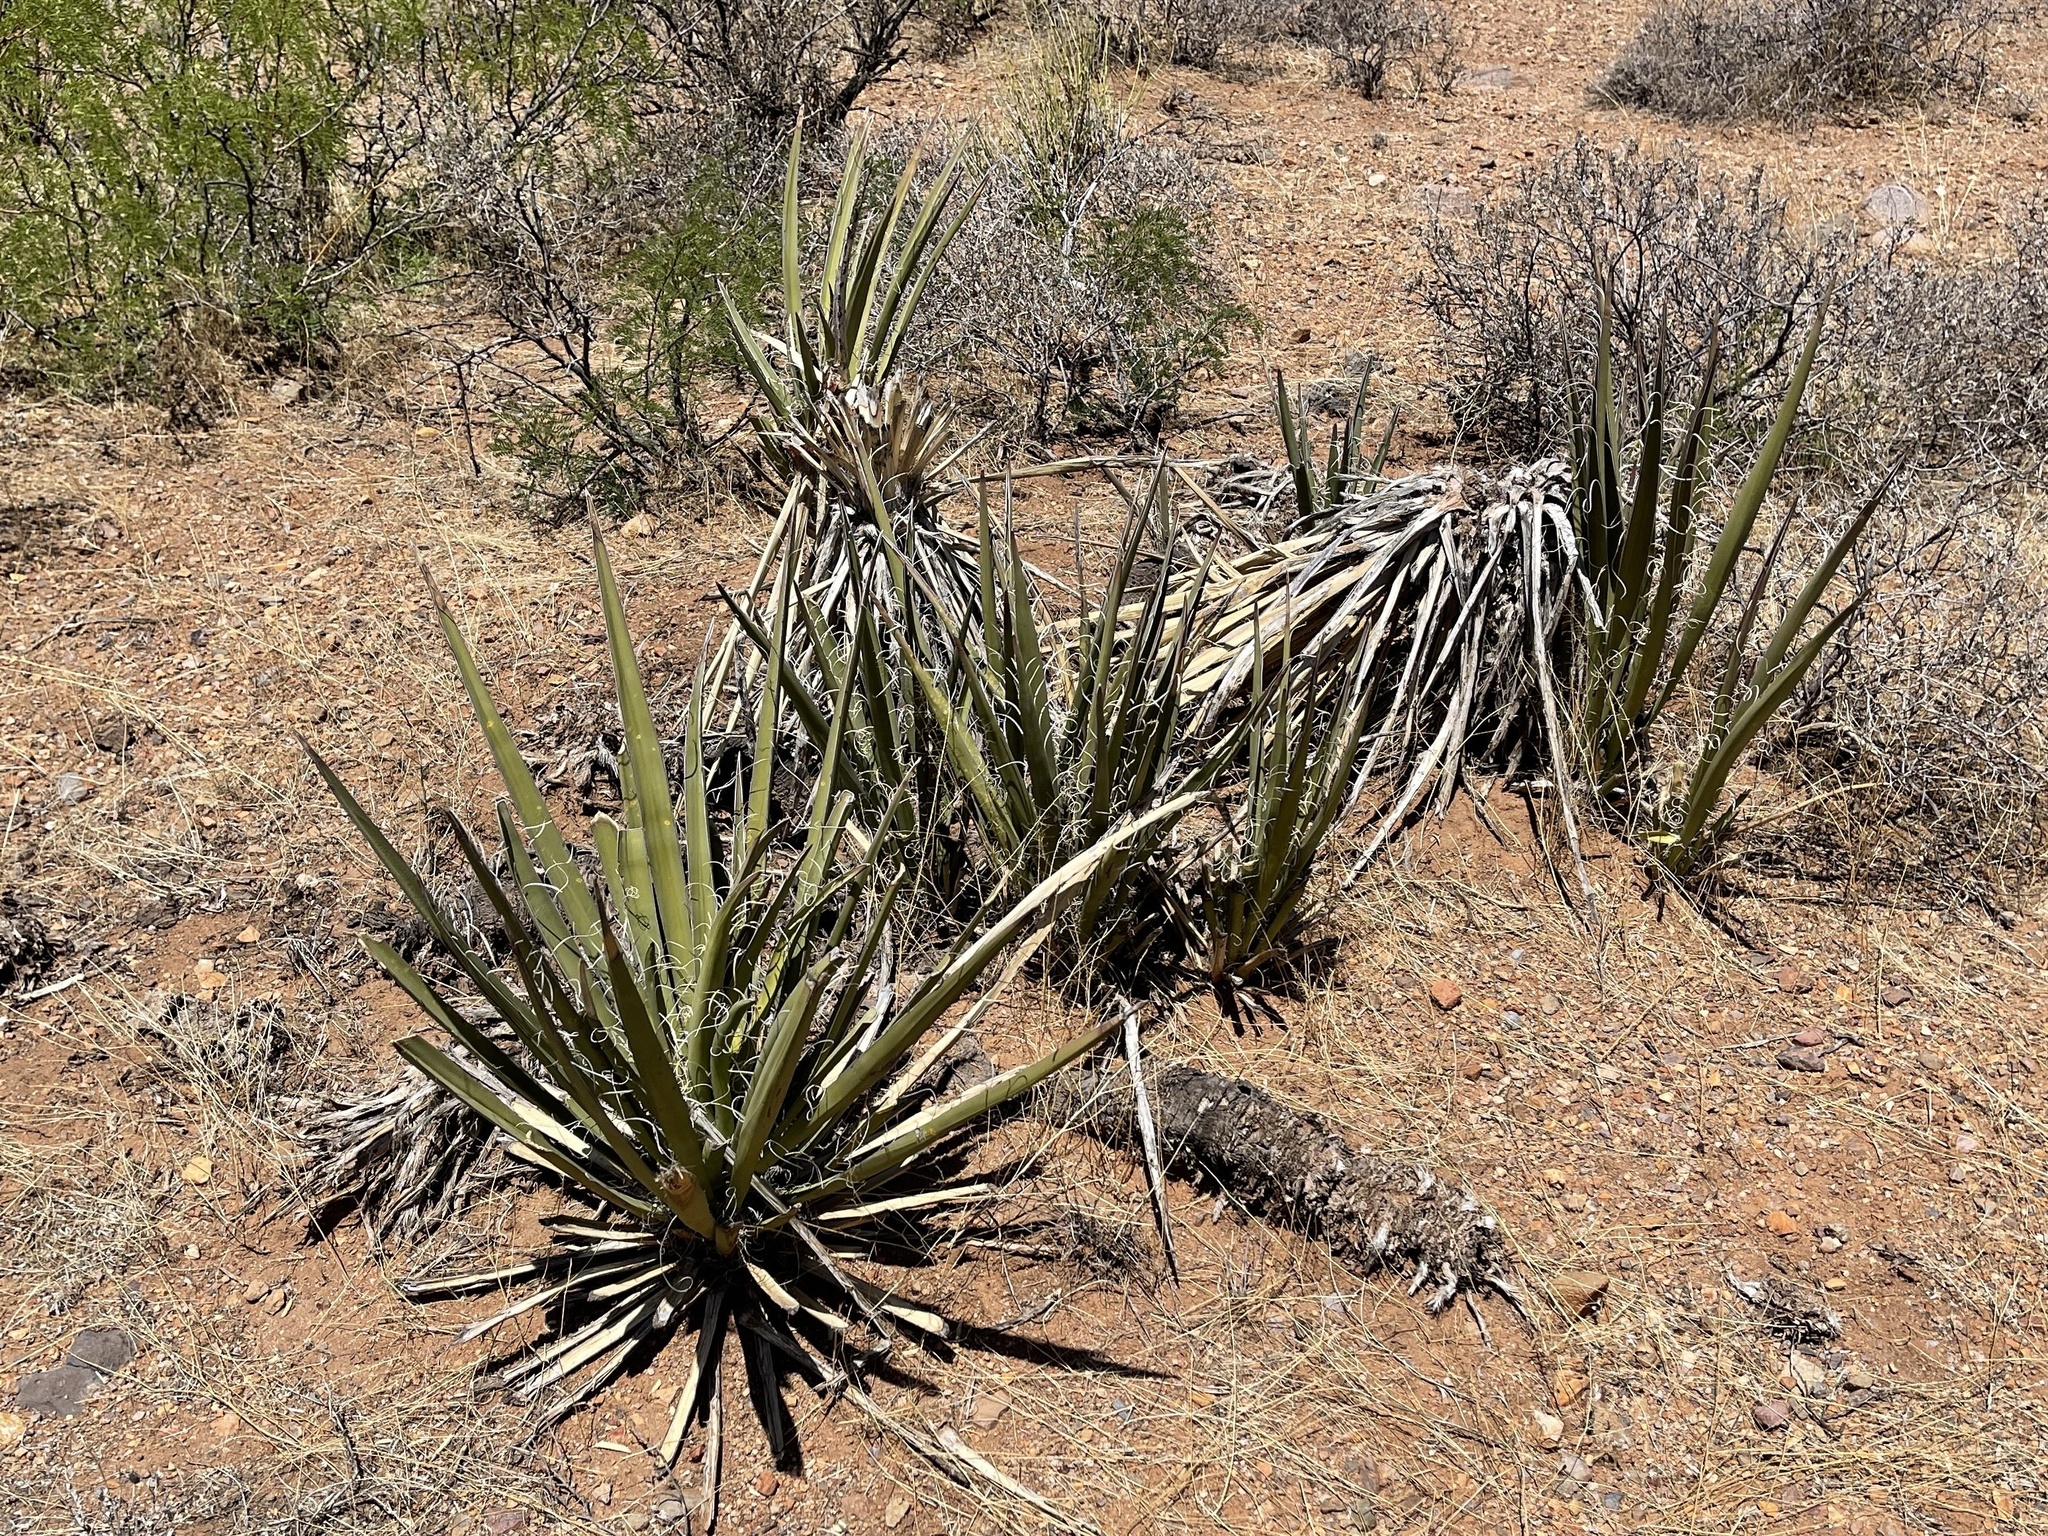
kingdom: Plantae
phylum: Tracheophyta
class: Liliopsida
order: Asparagales
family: Asparagaceae
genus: Yucca
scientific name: Yucca baccata
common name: Banana yucca
